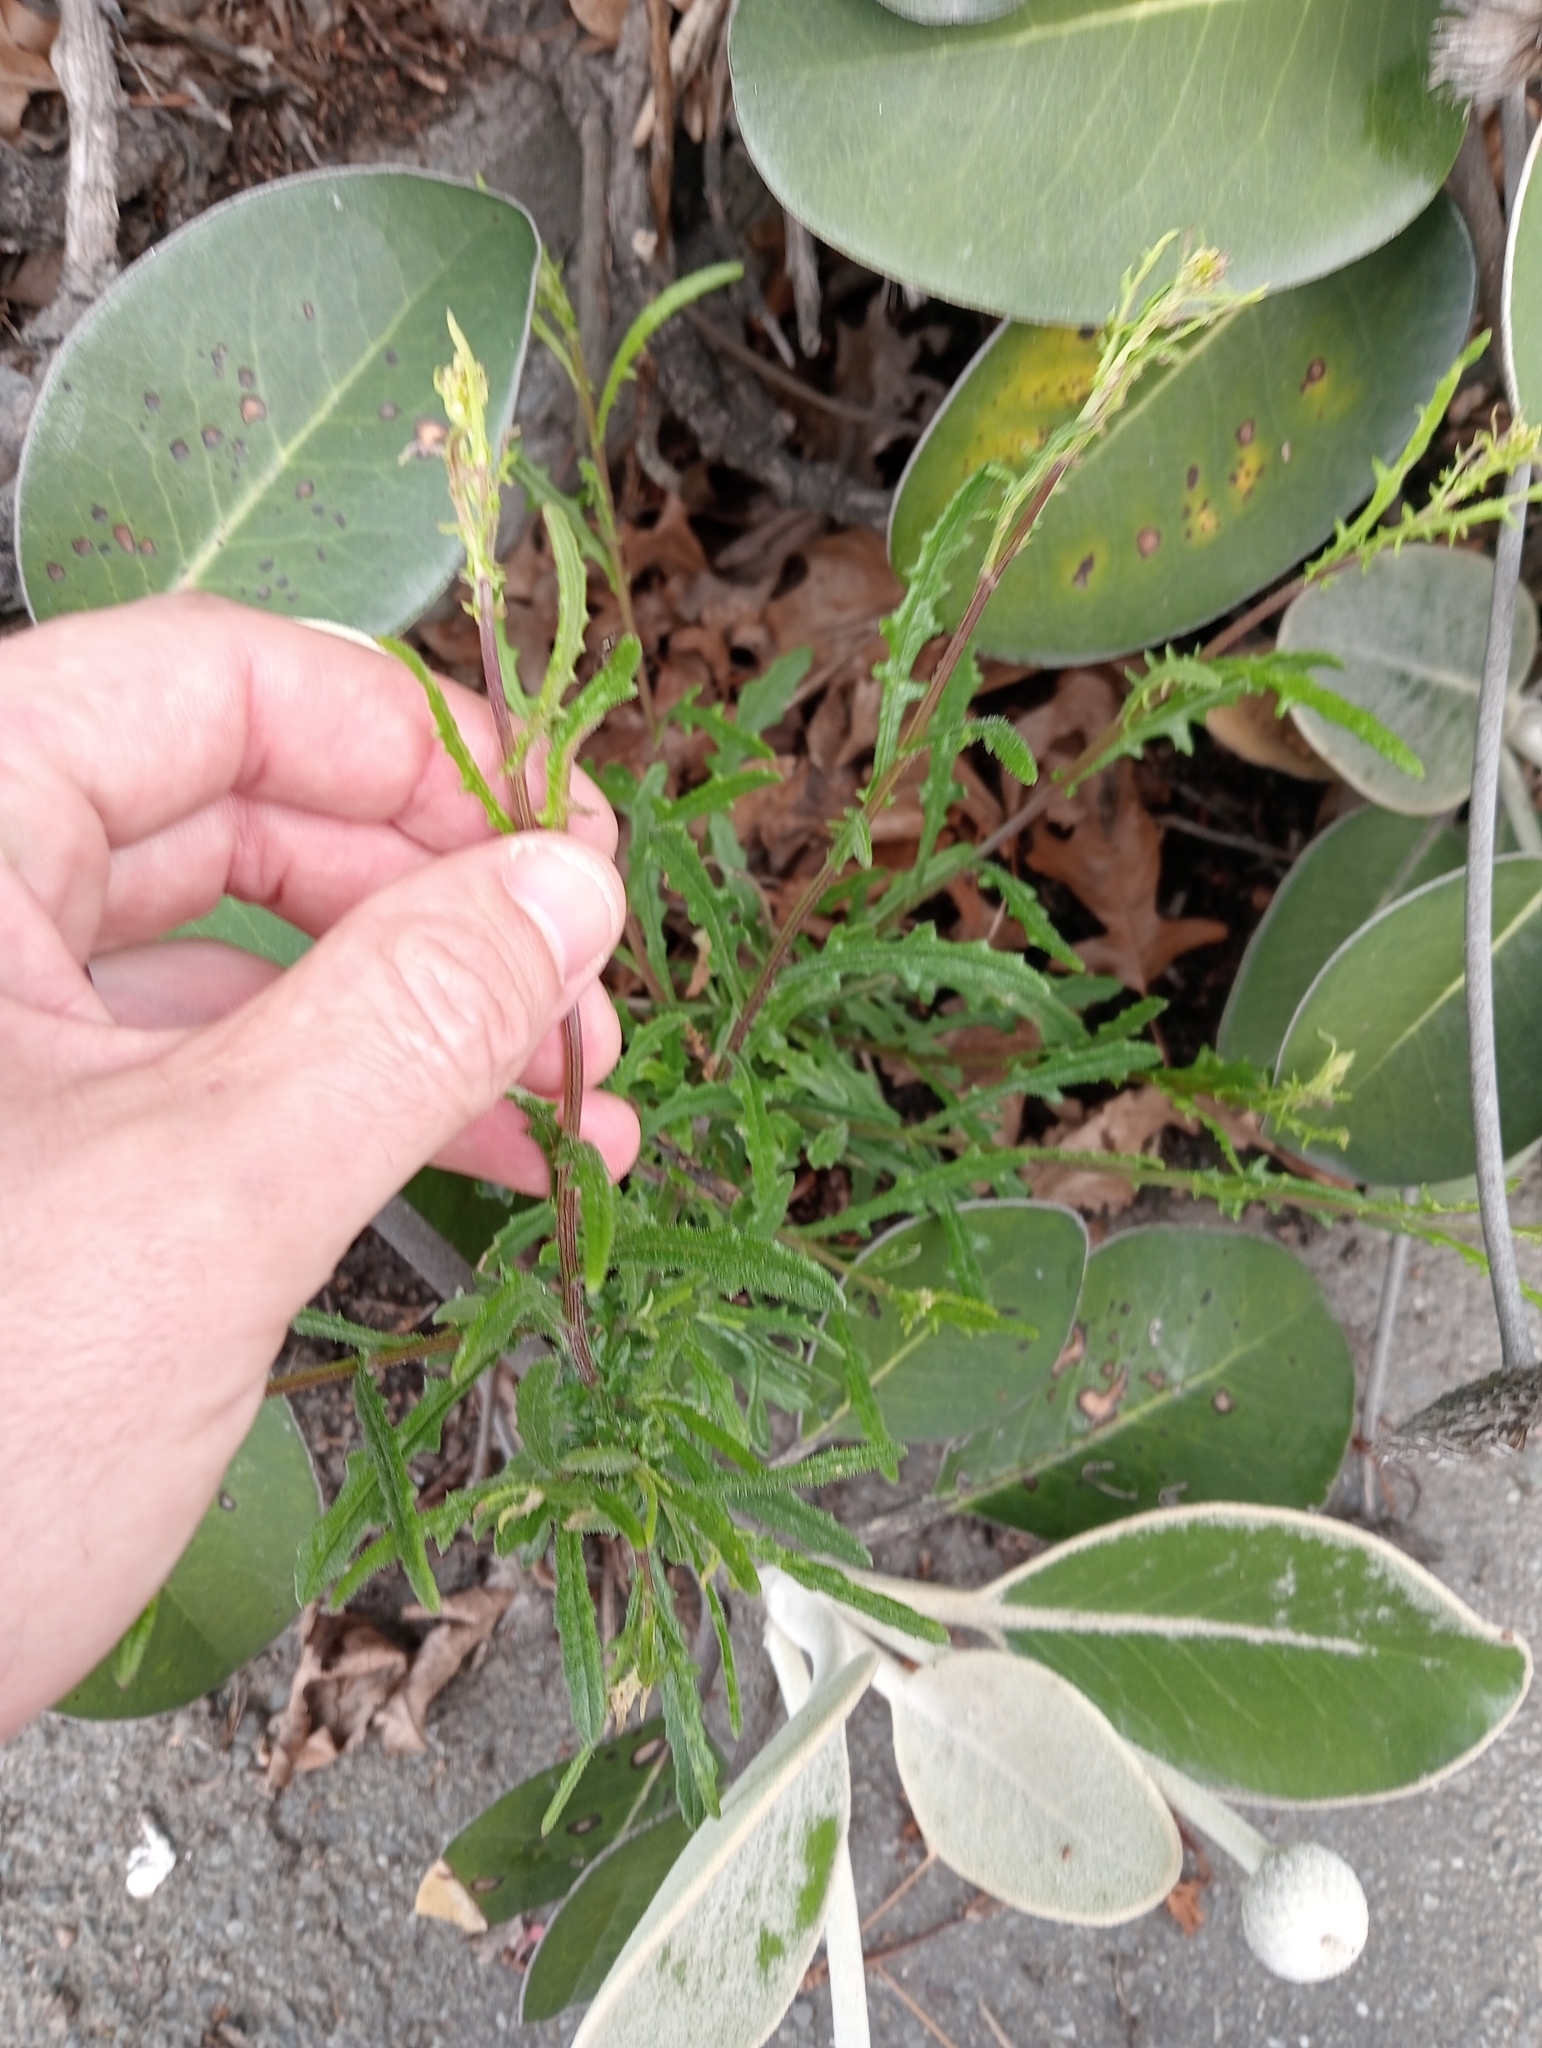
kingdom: Plantae
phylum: Tracheophyta
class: Magnoliopsida
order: Asterales
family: Asteraceae
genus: Senecio
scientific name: Senecio hispidulus
